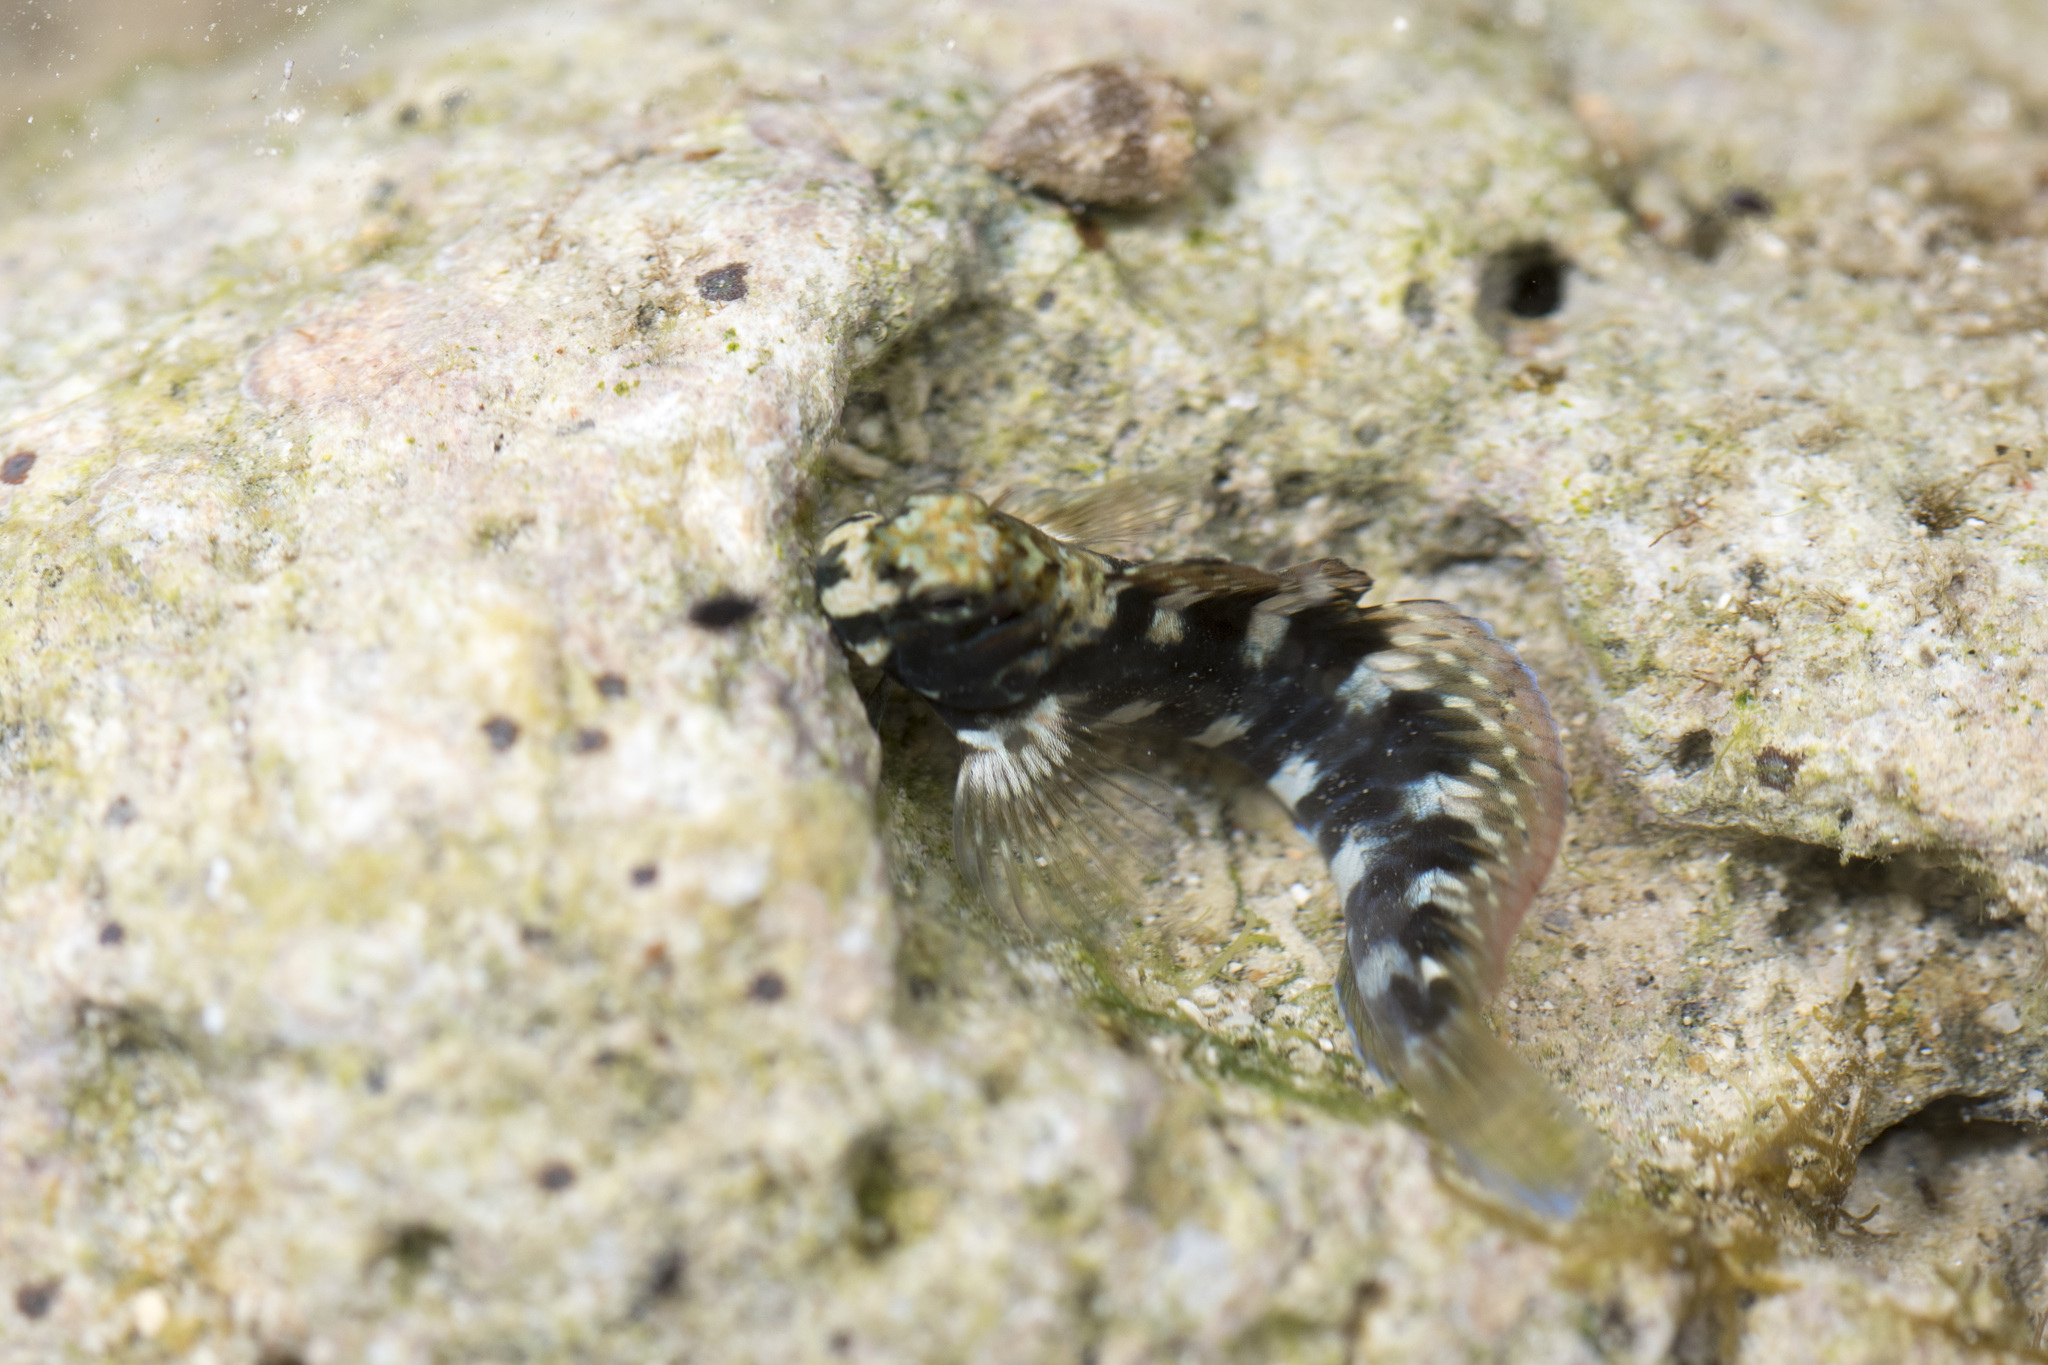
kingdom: Animalia
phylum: Chordata
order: Perciformes
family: Blenniidae
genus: Istiblennius
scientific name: Istiblennius edentulus
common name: Rippled rockskipper
